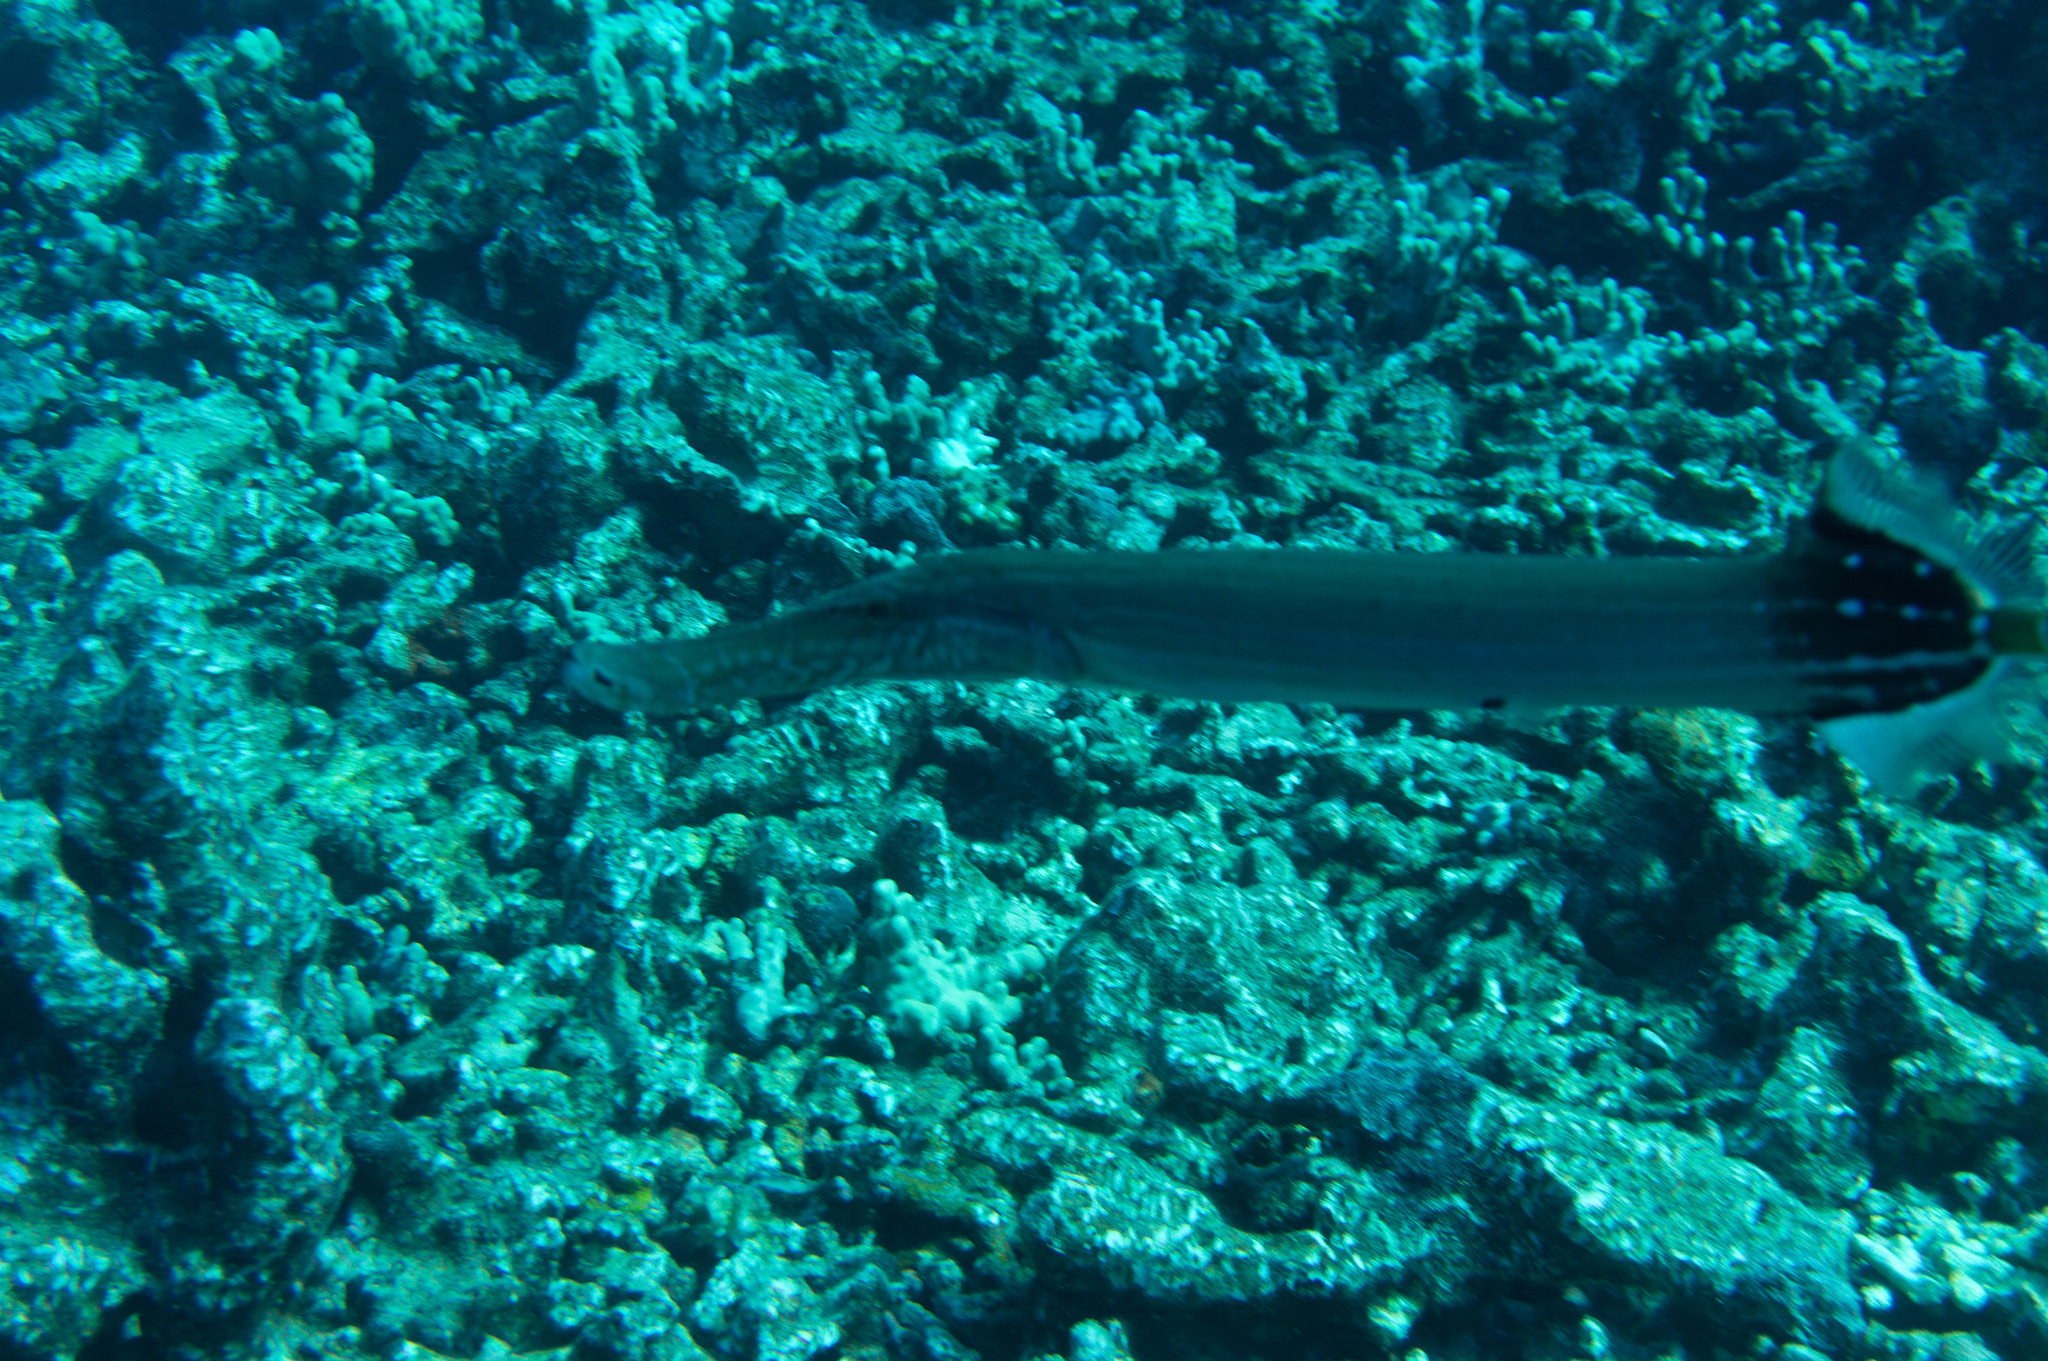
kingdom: Animalia
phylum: Chordata
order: Syngnathiformes
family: Aulostomidae
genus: Aulostomus
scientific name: Aulostomus chinensis
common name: Chinese trumpetfish
